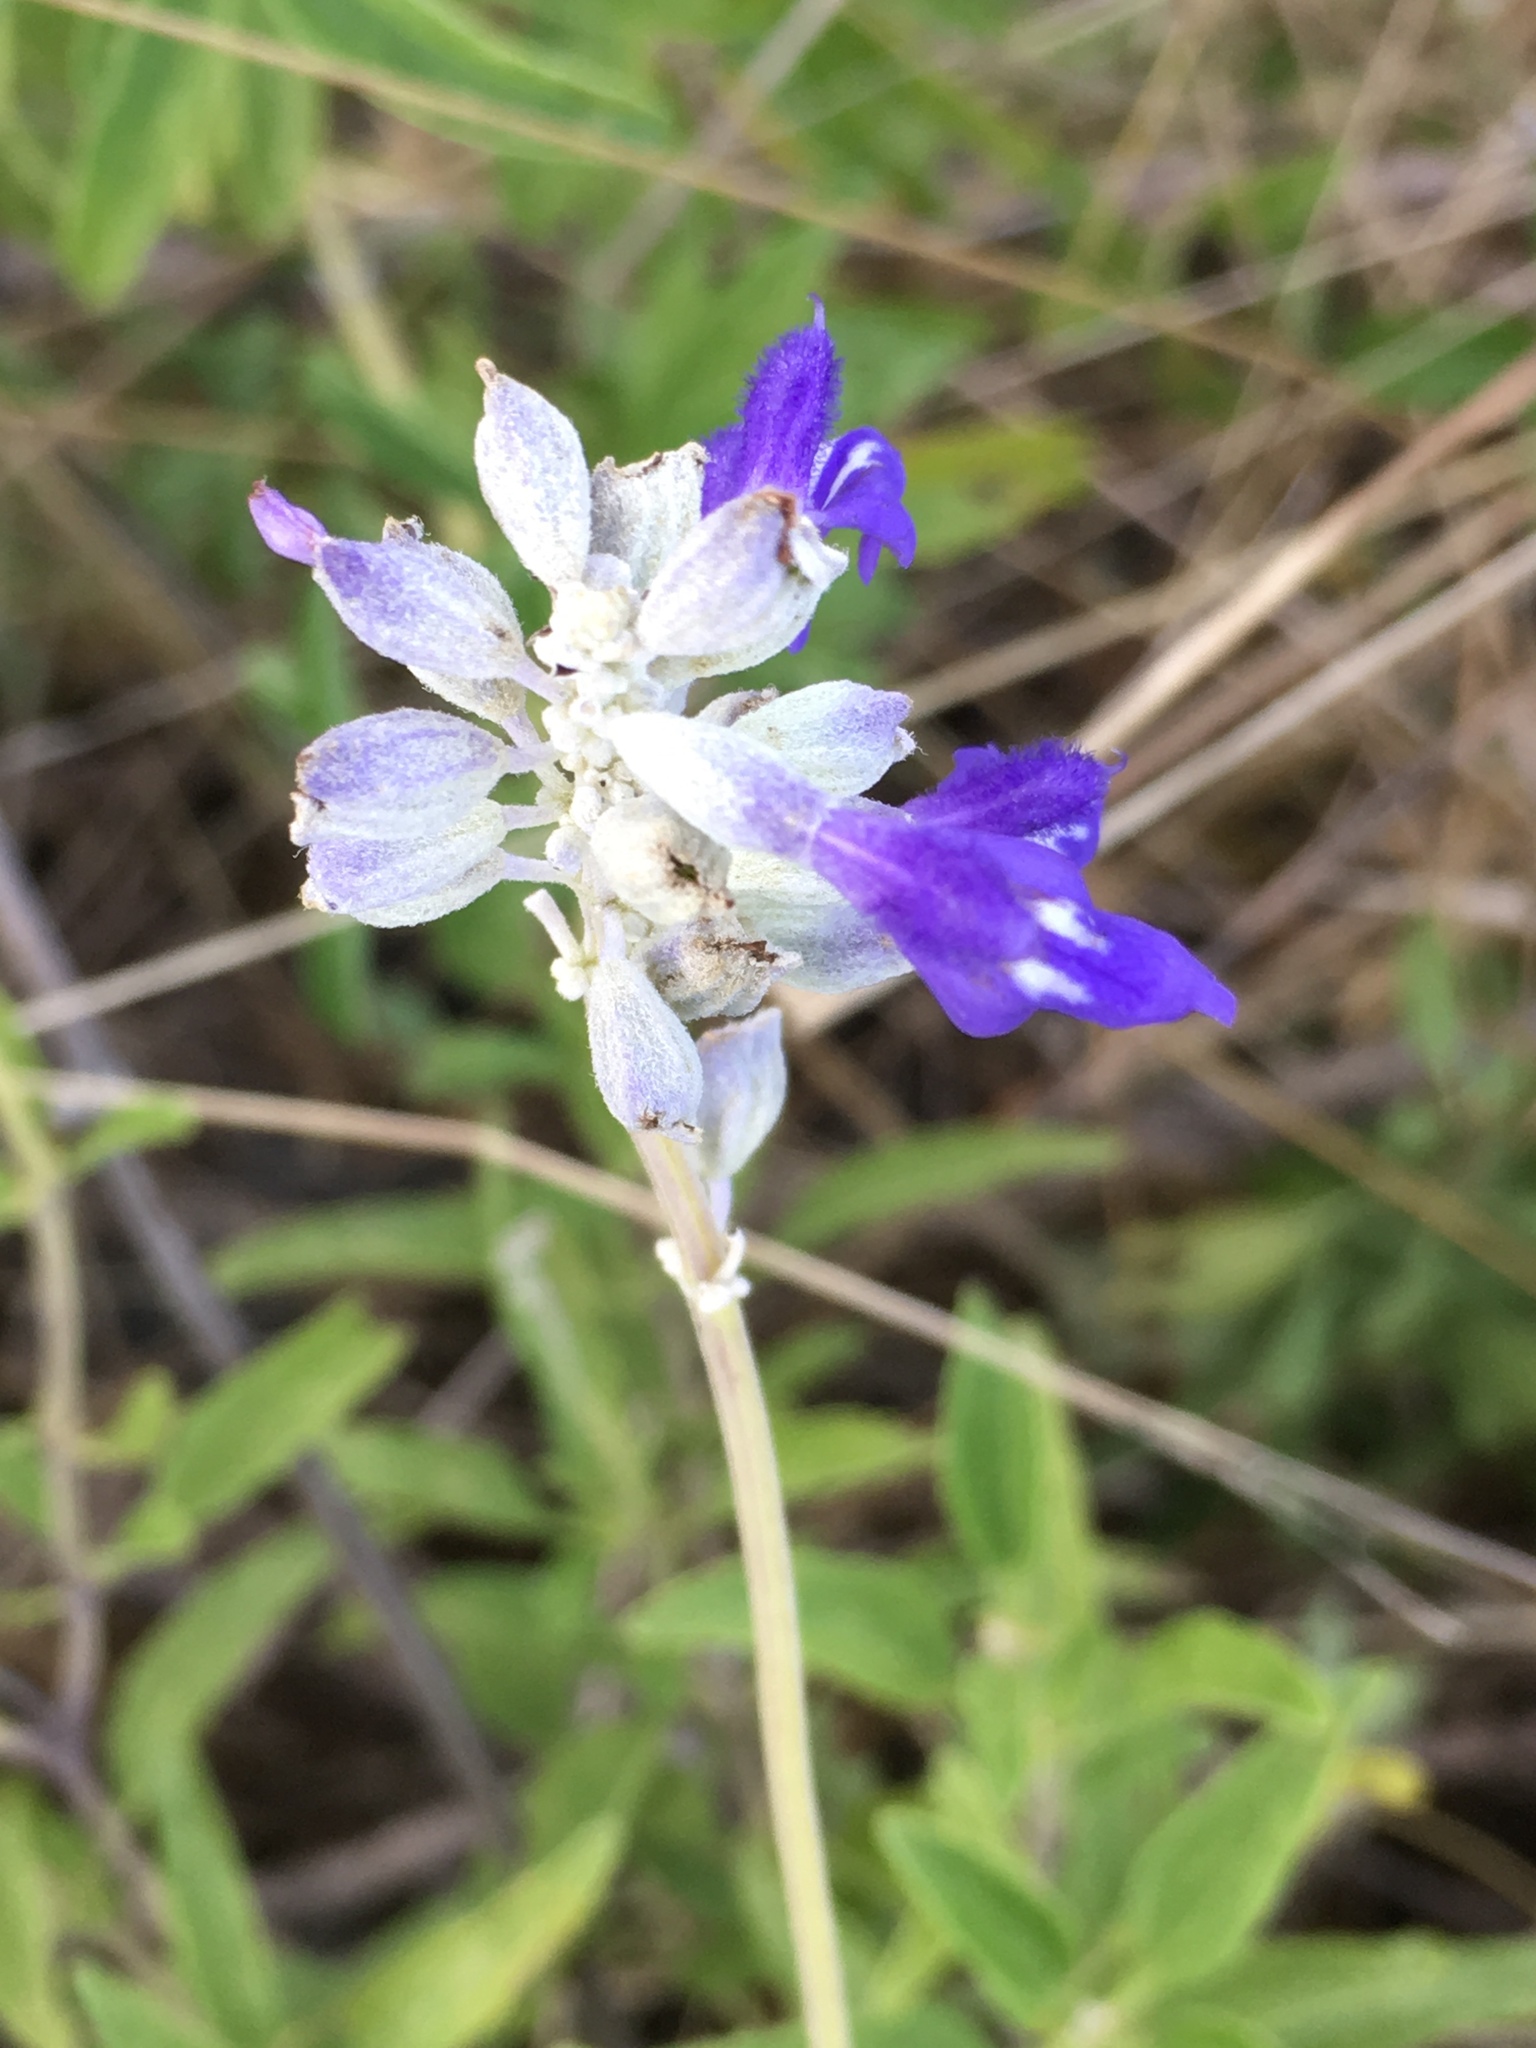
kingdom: Plantae
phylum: Tracheophyta
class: Magnoliopsida
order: Lamiales
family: Lamiaceae
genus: Salvia
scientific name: Salvia farinacea
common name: Mealy sage
